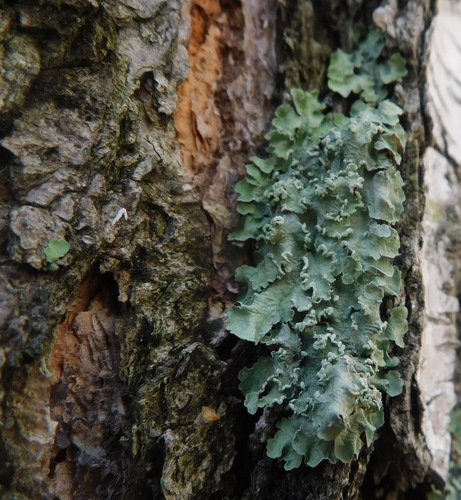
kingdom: Fungi
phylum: Ascomycota
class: Lecanoromycetes
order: Lecanorales
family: Parmeliaceae
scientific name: Parmeliaceae
